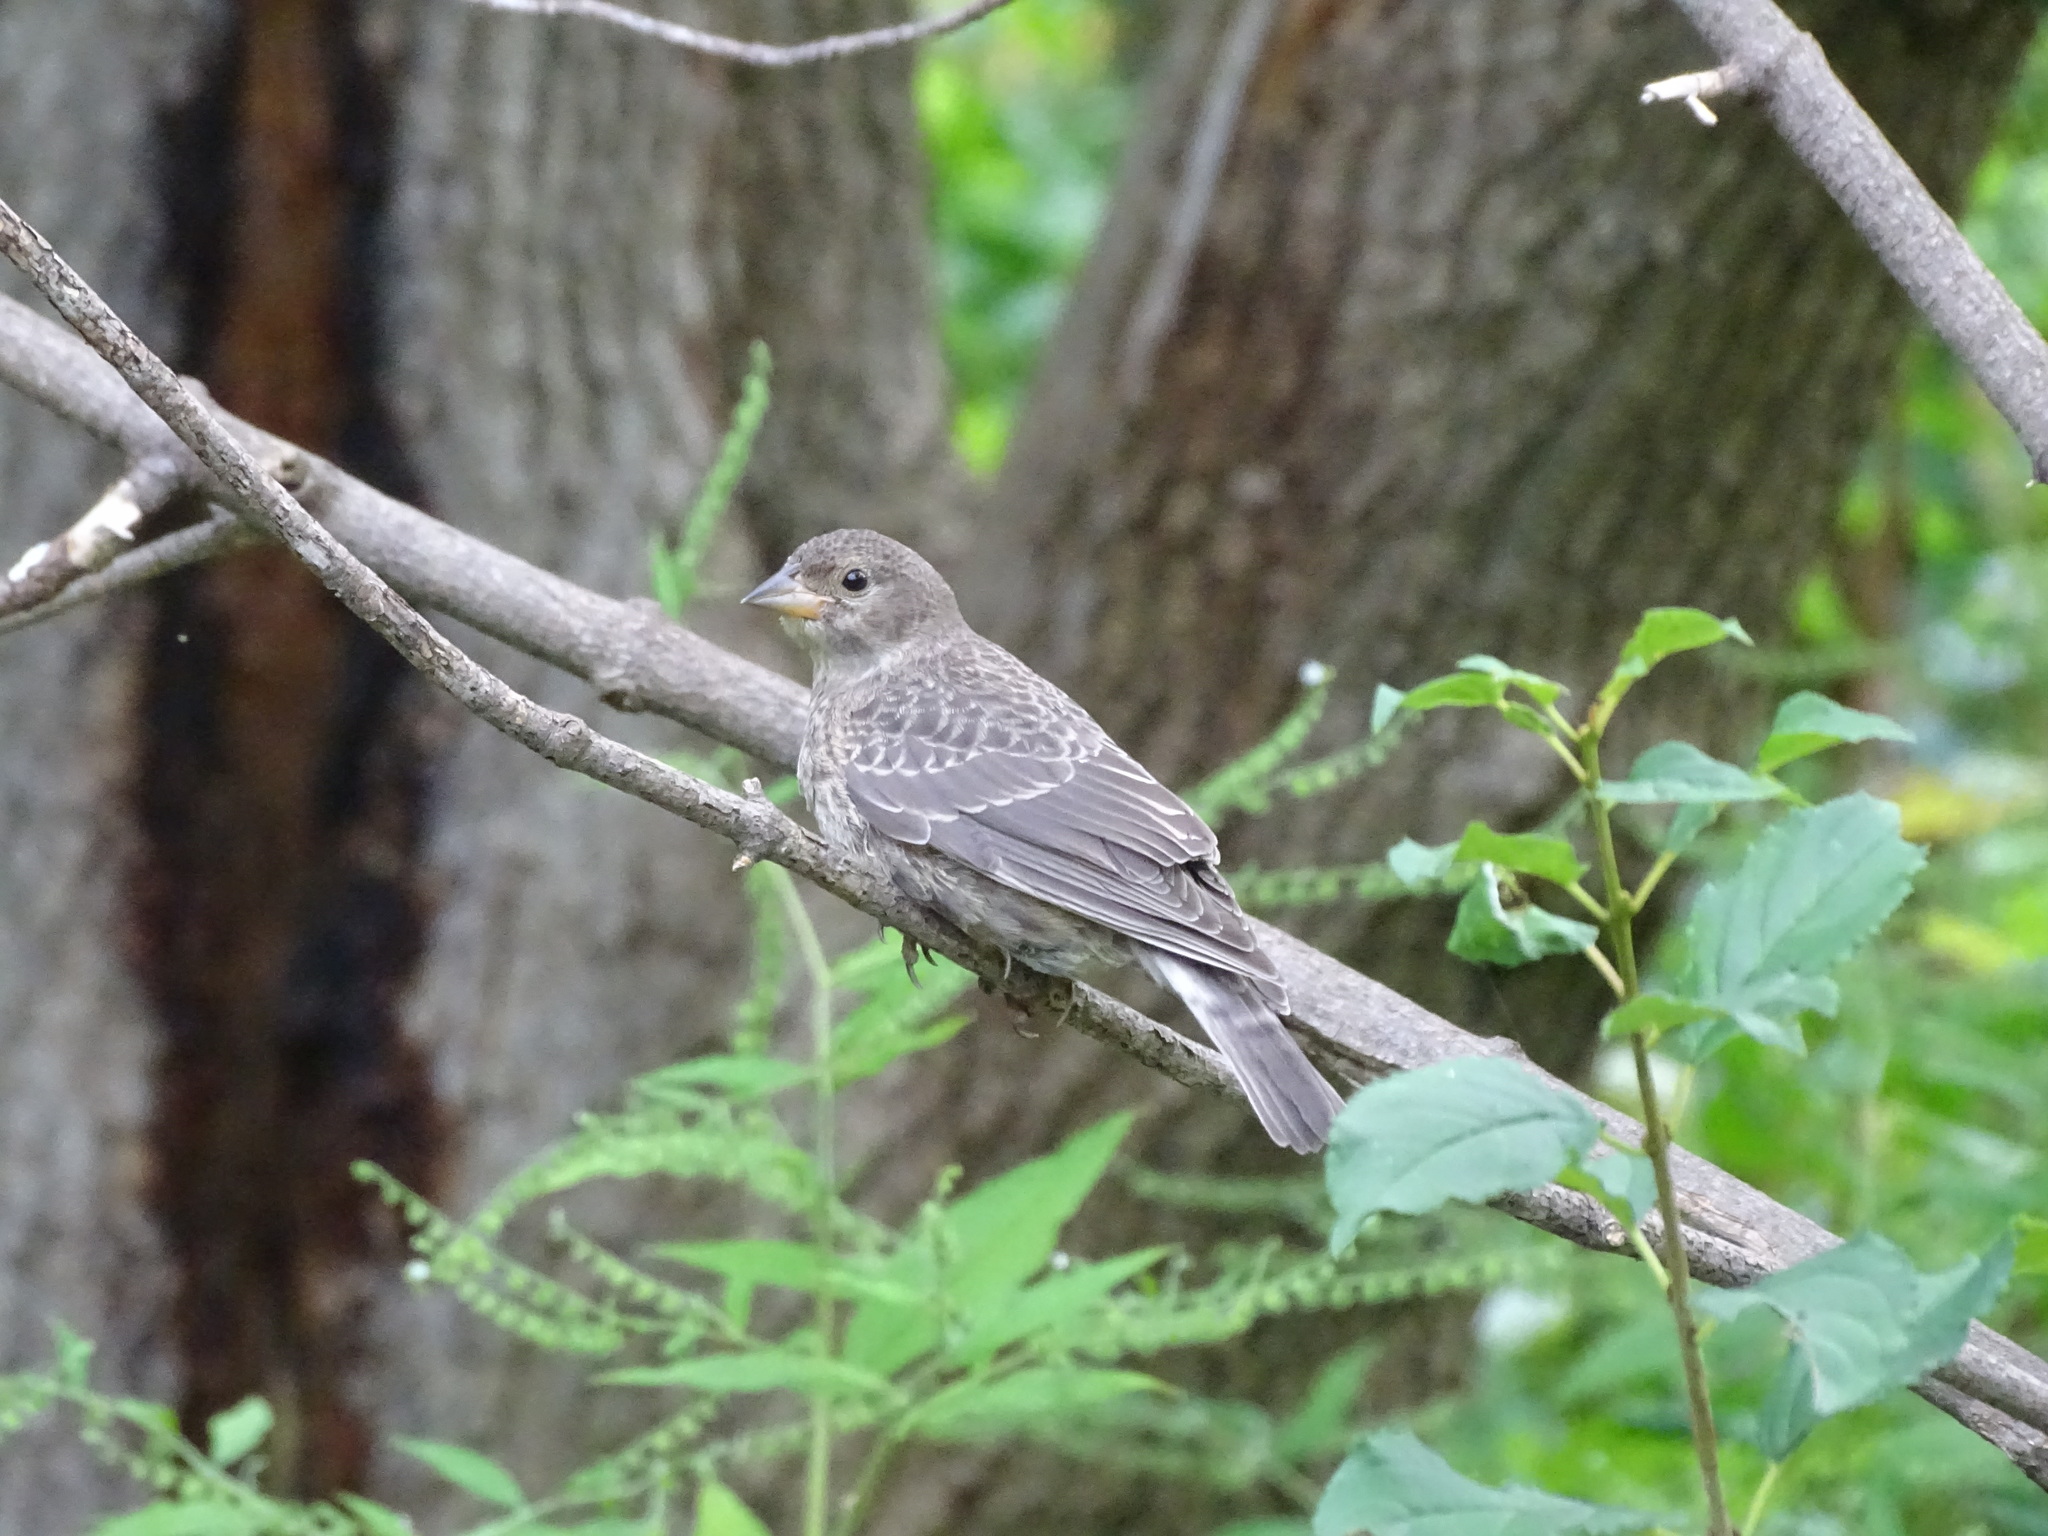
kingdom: Animalia
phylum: Chordata
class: Aves
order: Passeriformes
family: Icteridae
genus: Molothrus
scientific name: Molothrus ater
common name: Brown-headed cowbird
